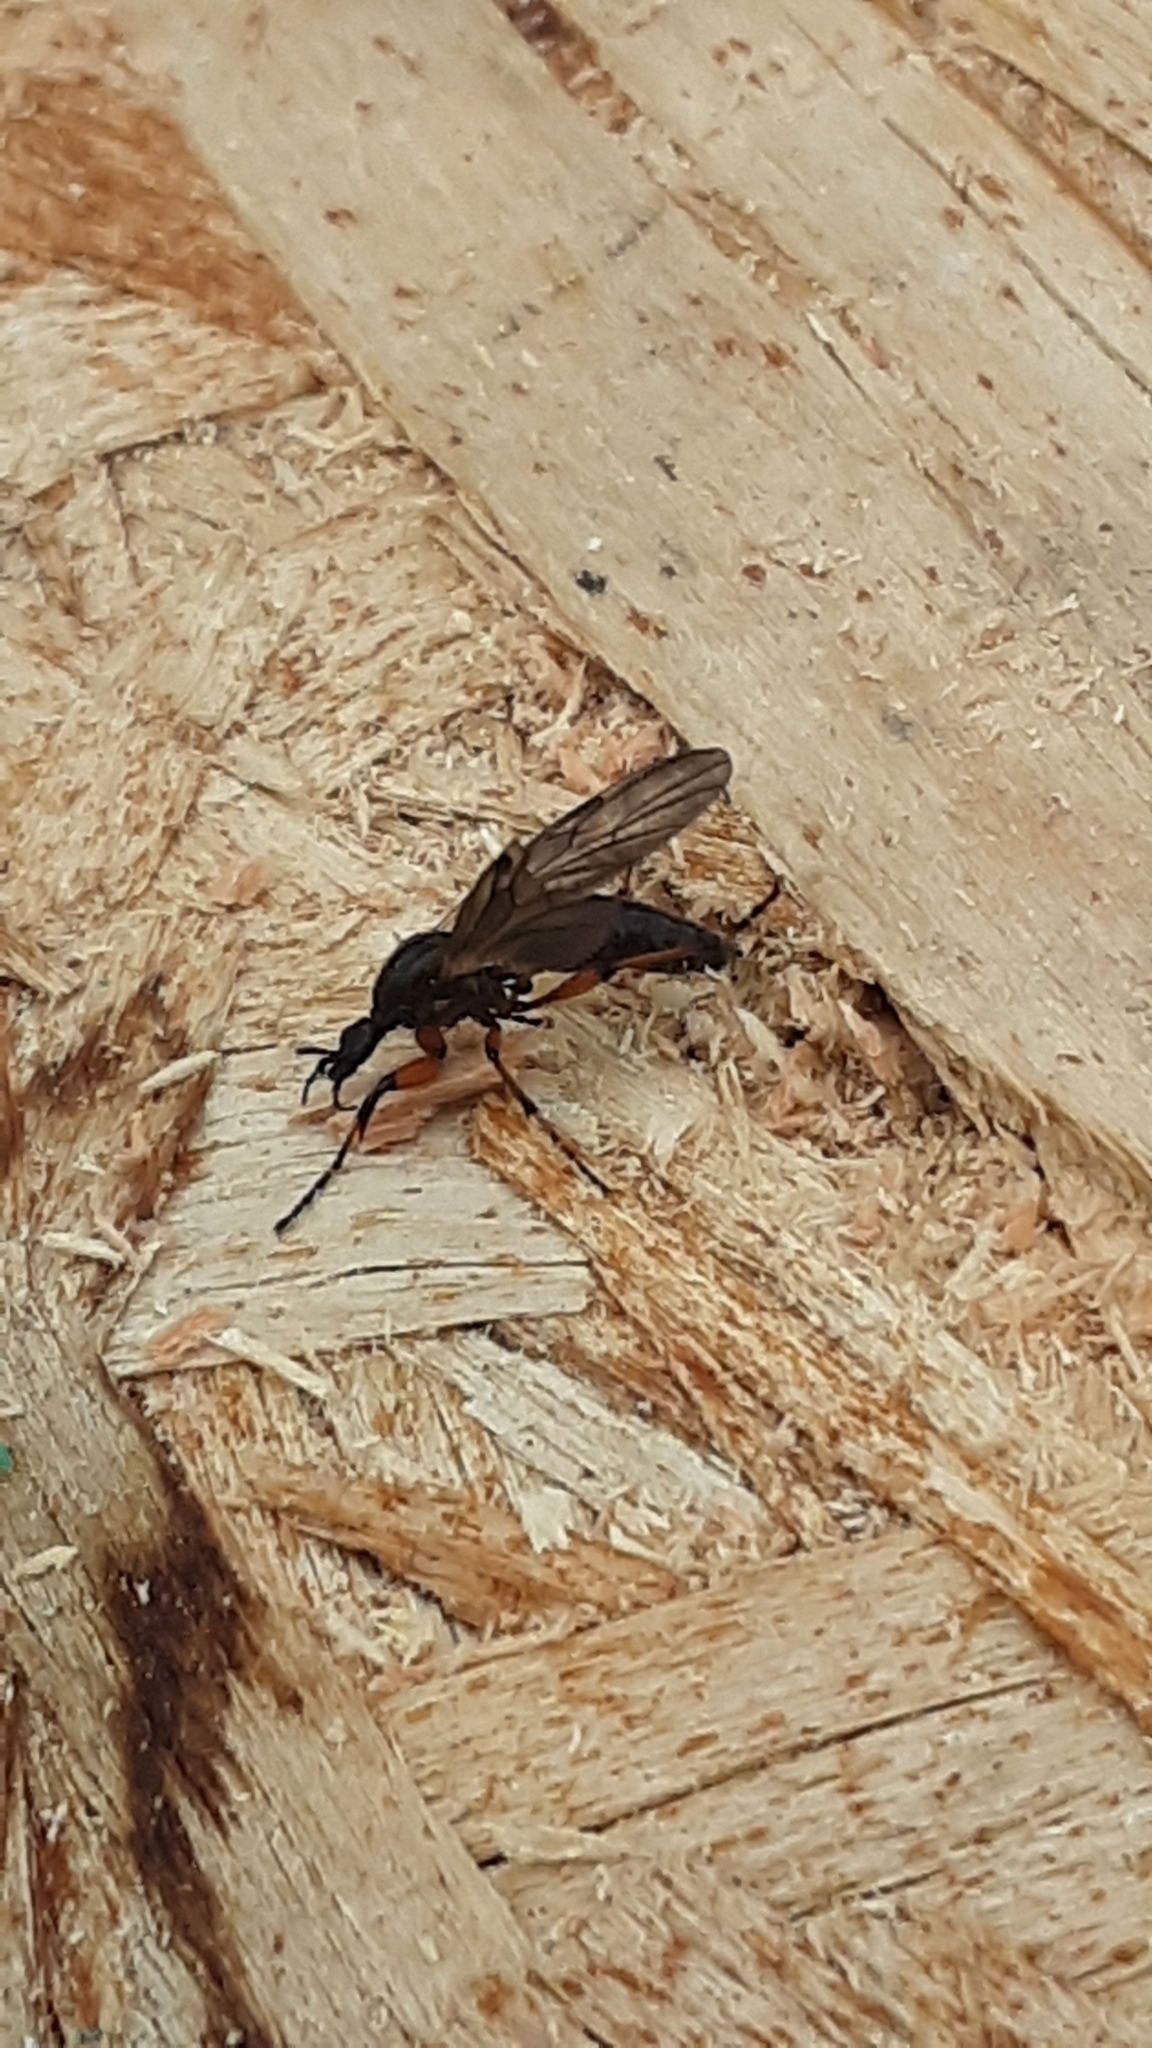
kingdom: Animalia
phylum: Arthropoda
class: Insecta
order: Diptera
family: Bibionidae
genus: Bibio
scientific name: Bibio
